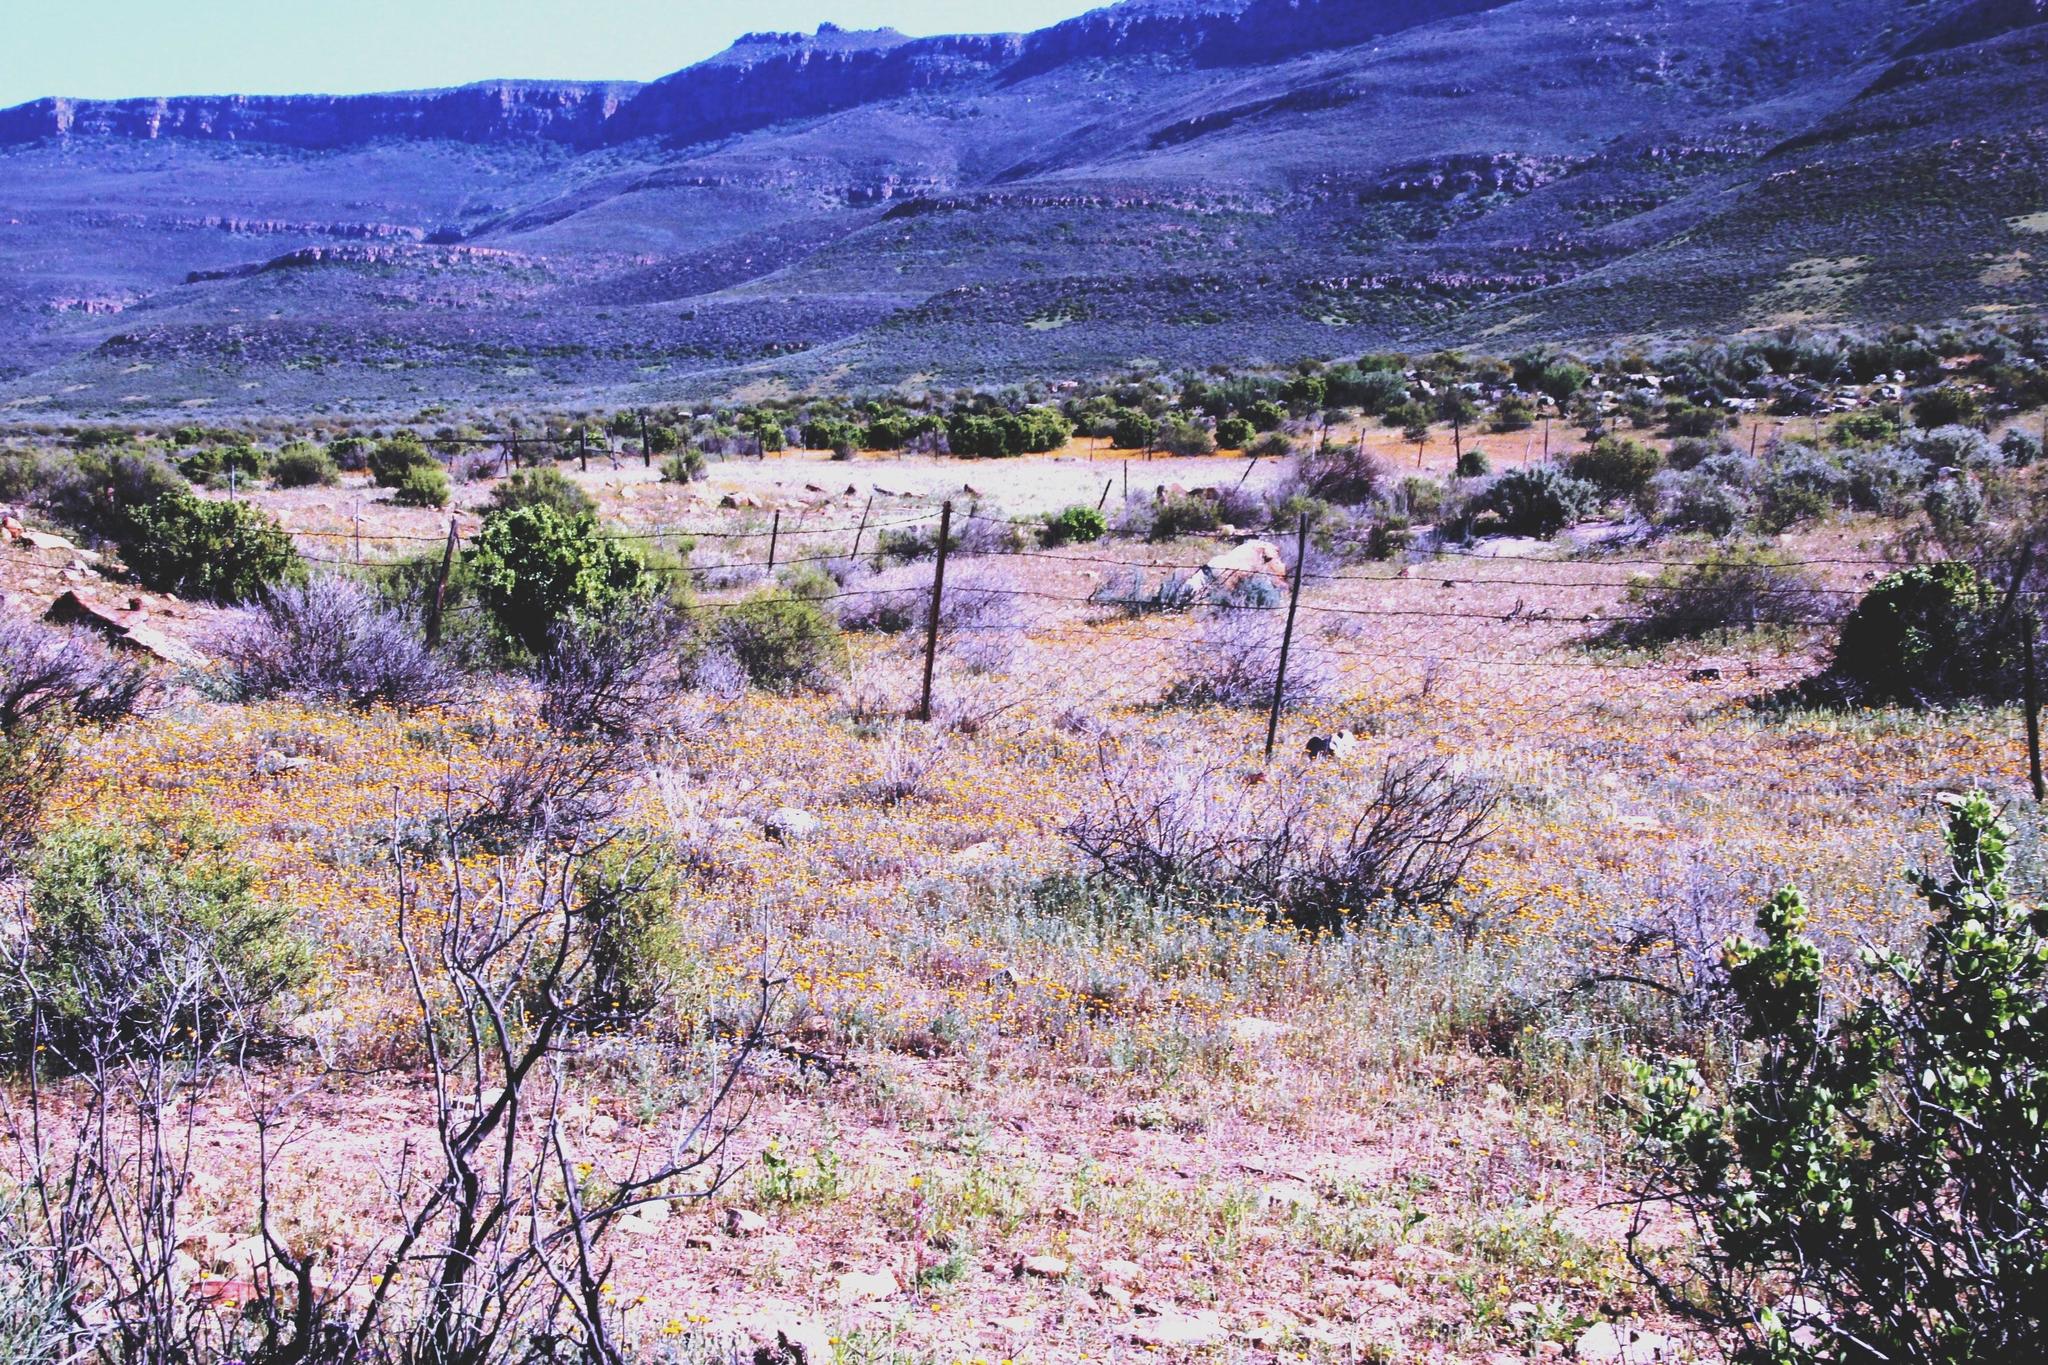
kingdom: Plantae
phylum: Tracheophyta
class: Magnoliopsida
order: Asterales
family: Asteraceae
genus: Oncosiphon
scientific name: Oncosiphon grandiflorus
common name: Swollen-flowered maywood
